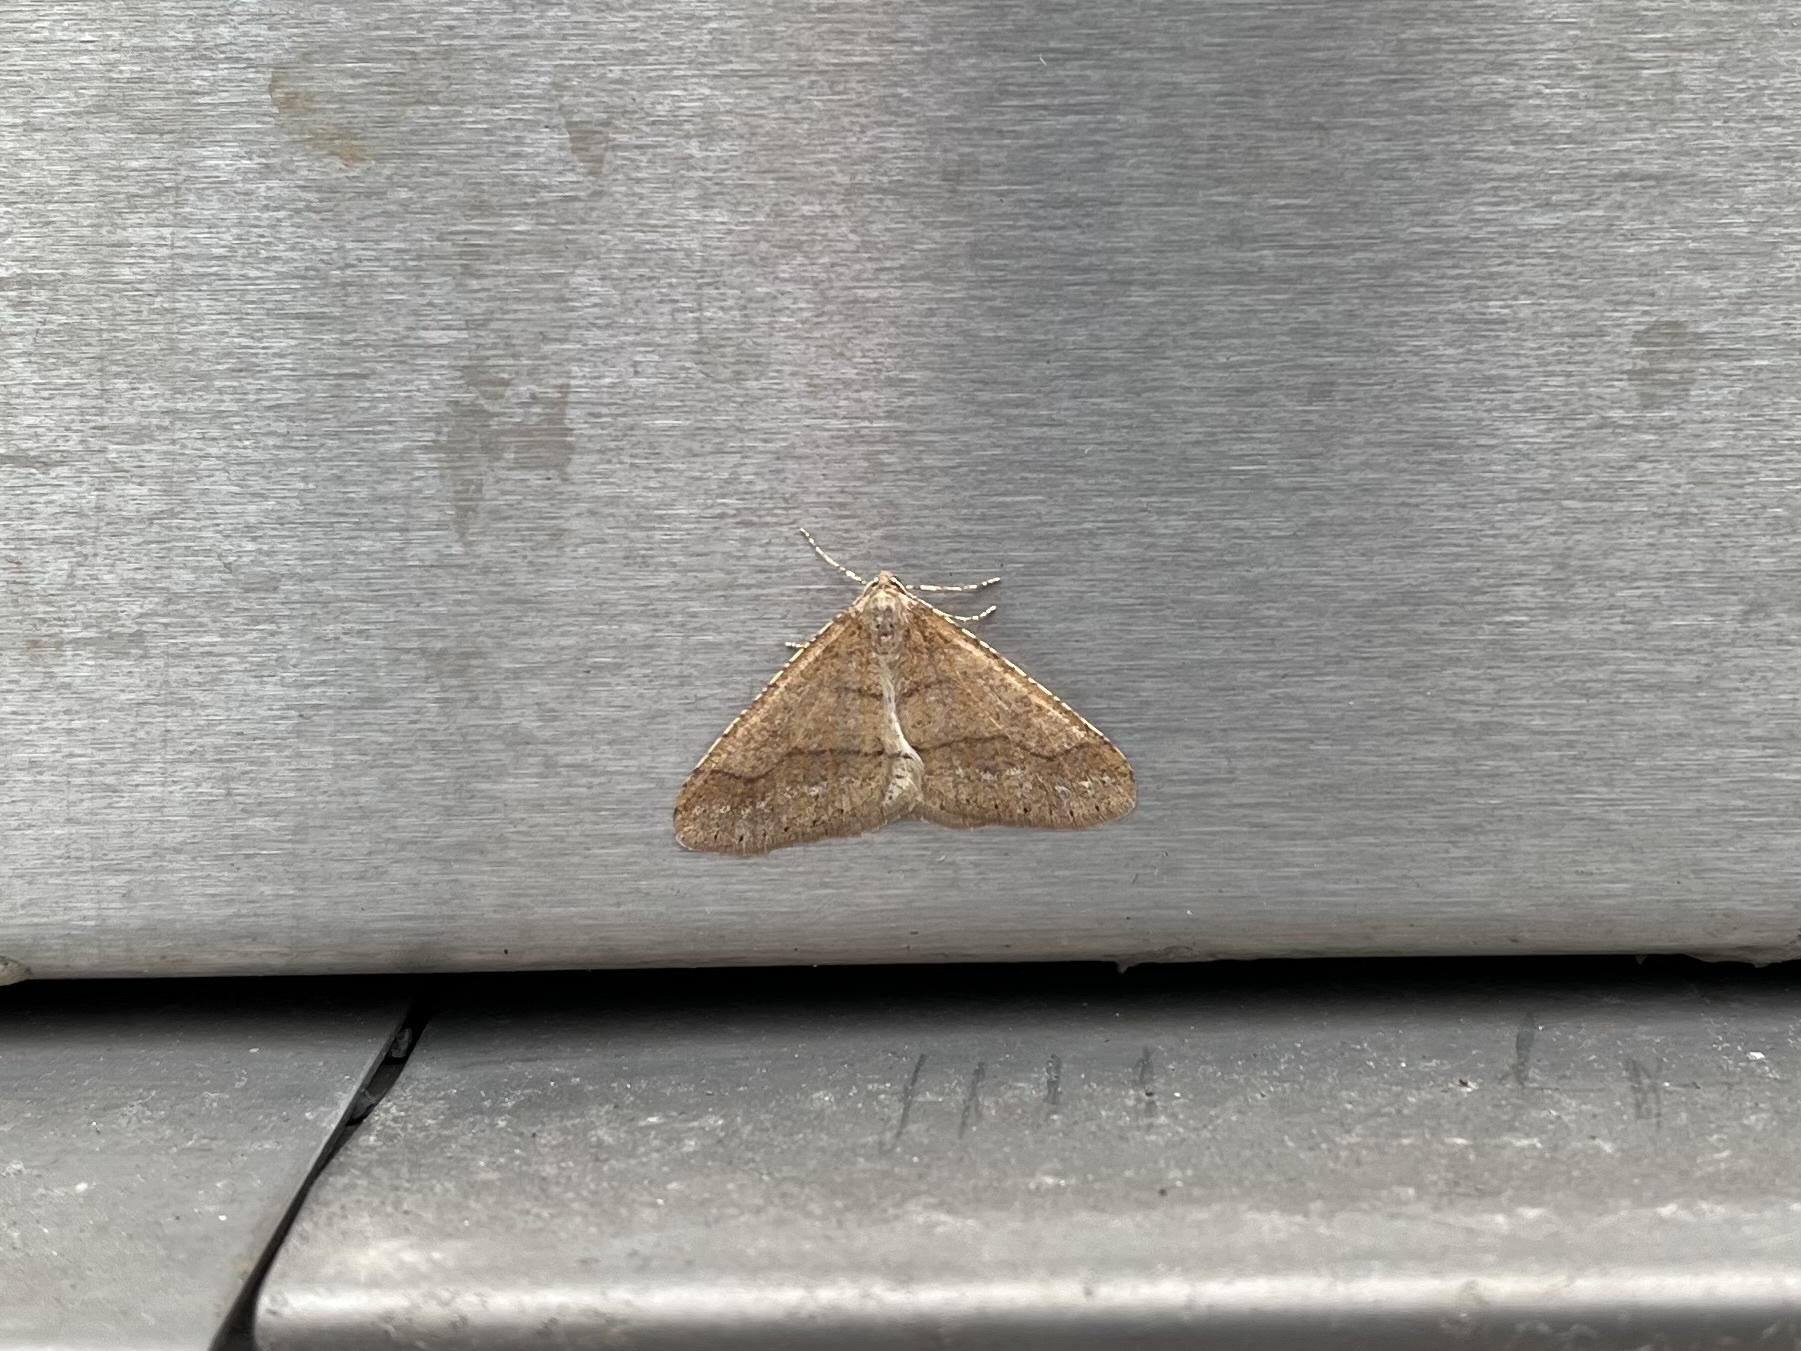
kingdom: Animalia
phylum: Arthropoda
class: Insecta
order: Lepidoptera
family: Geometridae
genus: Agriopis
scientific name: Agriopis marginaria
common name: Dotted border
